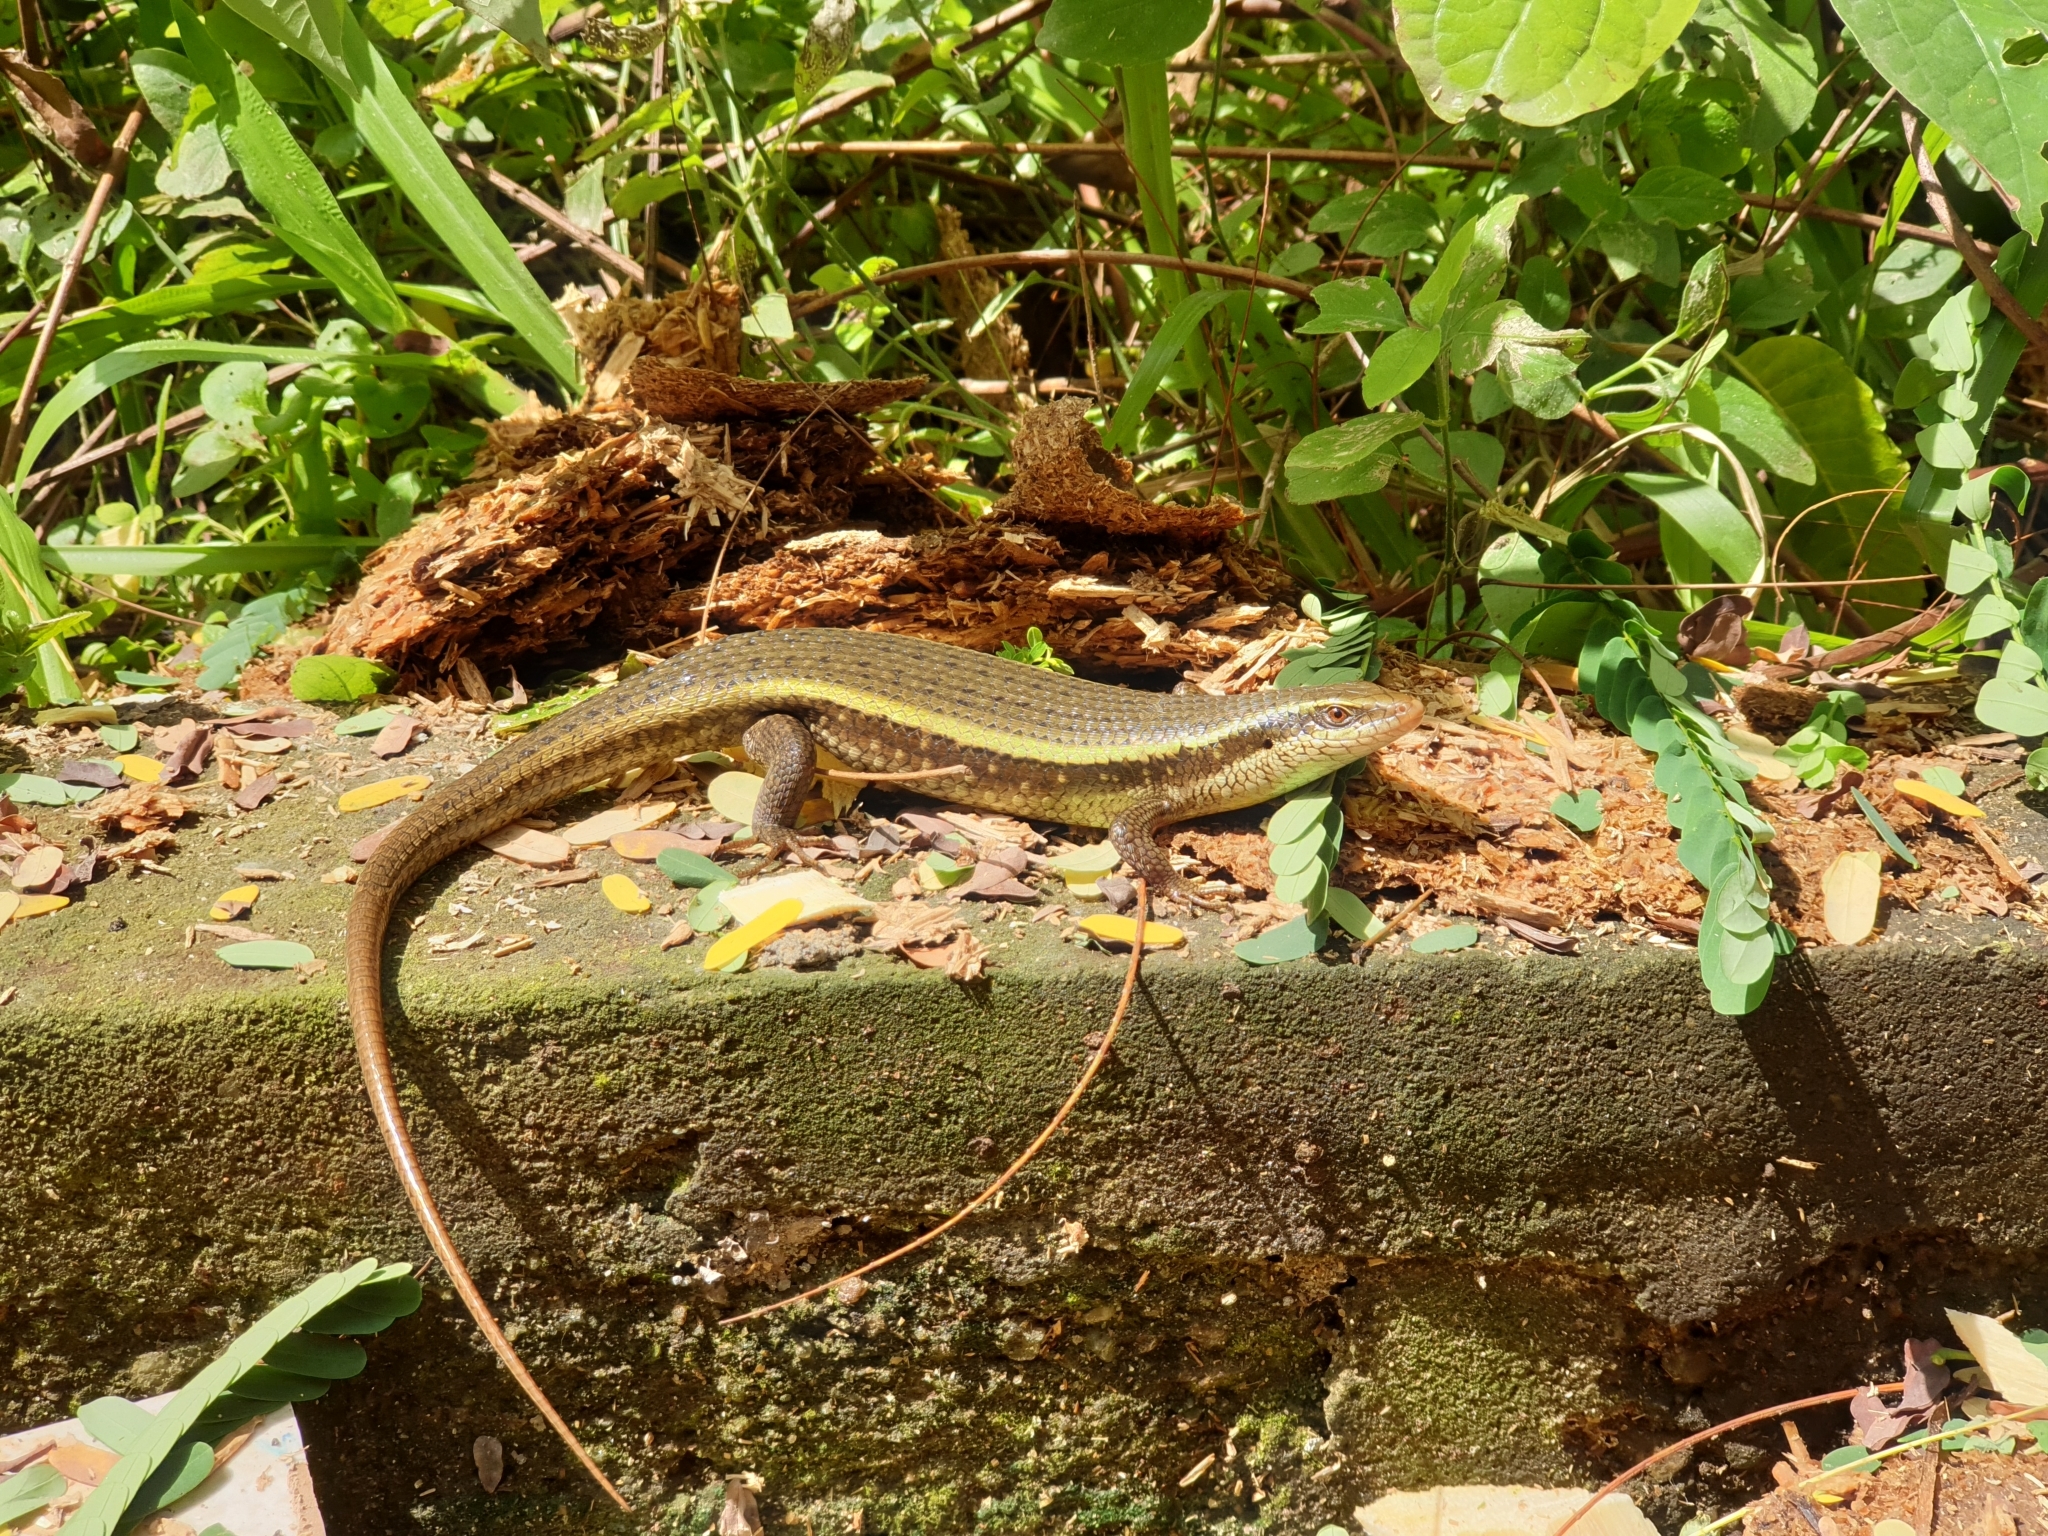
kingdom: Animalia
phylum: Chordata
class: Squamata
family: Scincidae
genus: Eutropis
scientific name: Eutropis lankae
